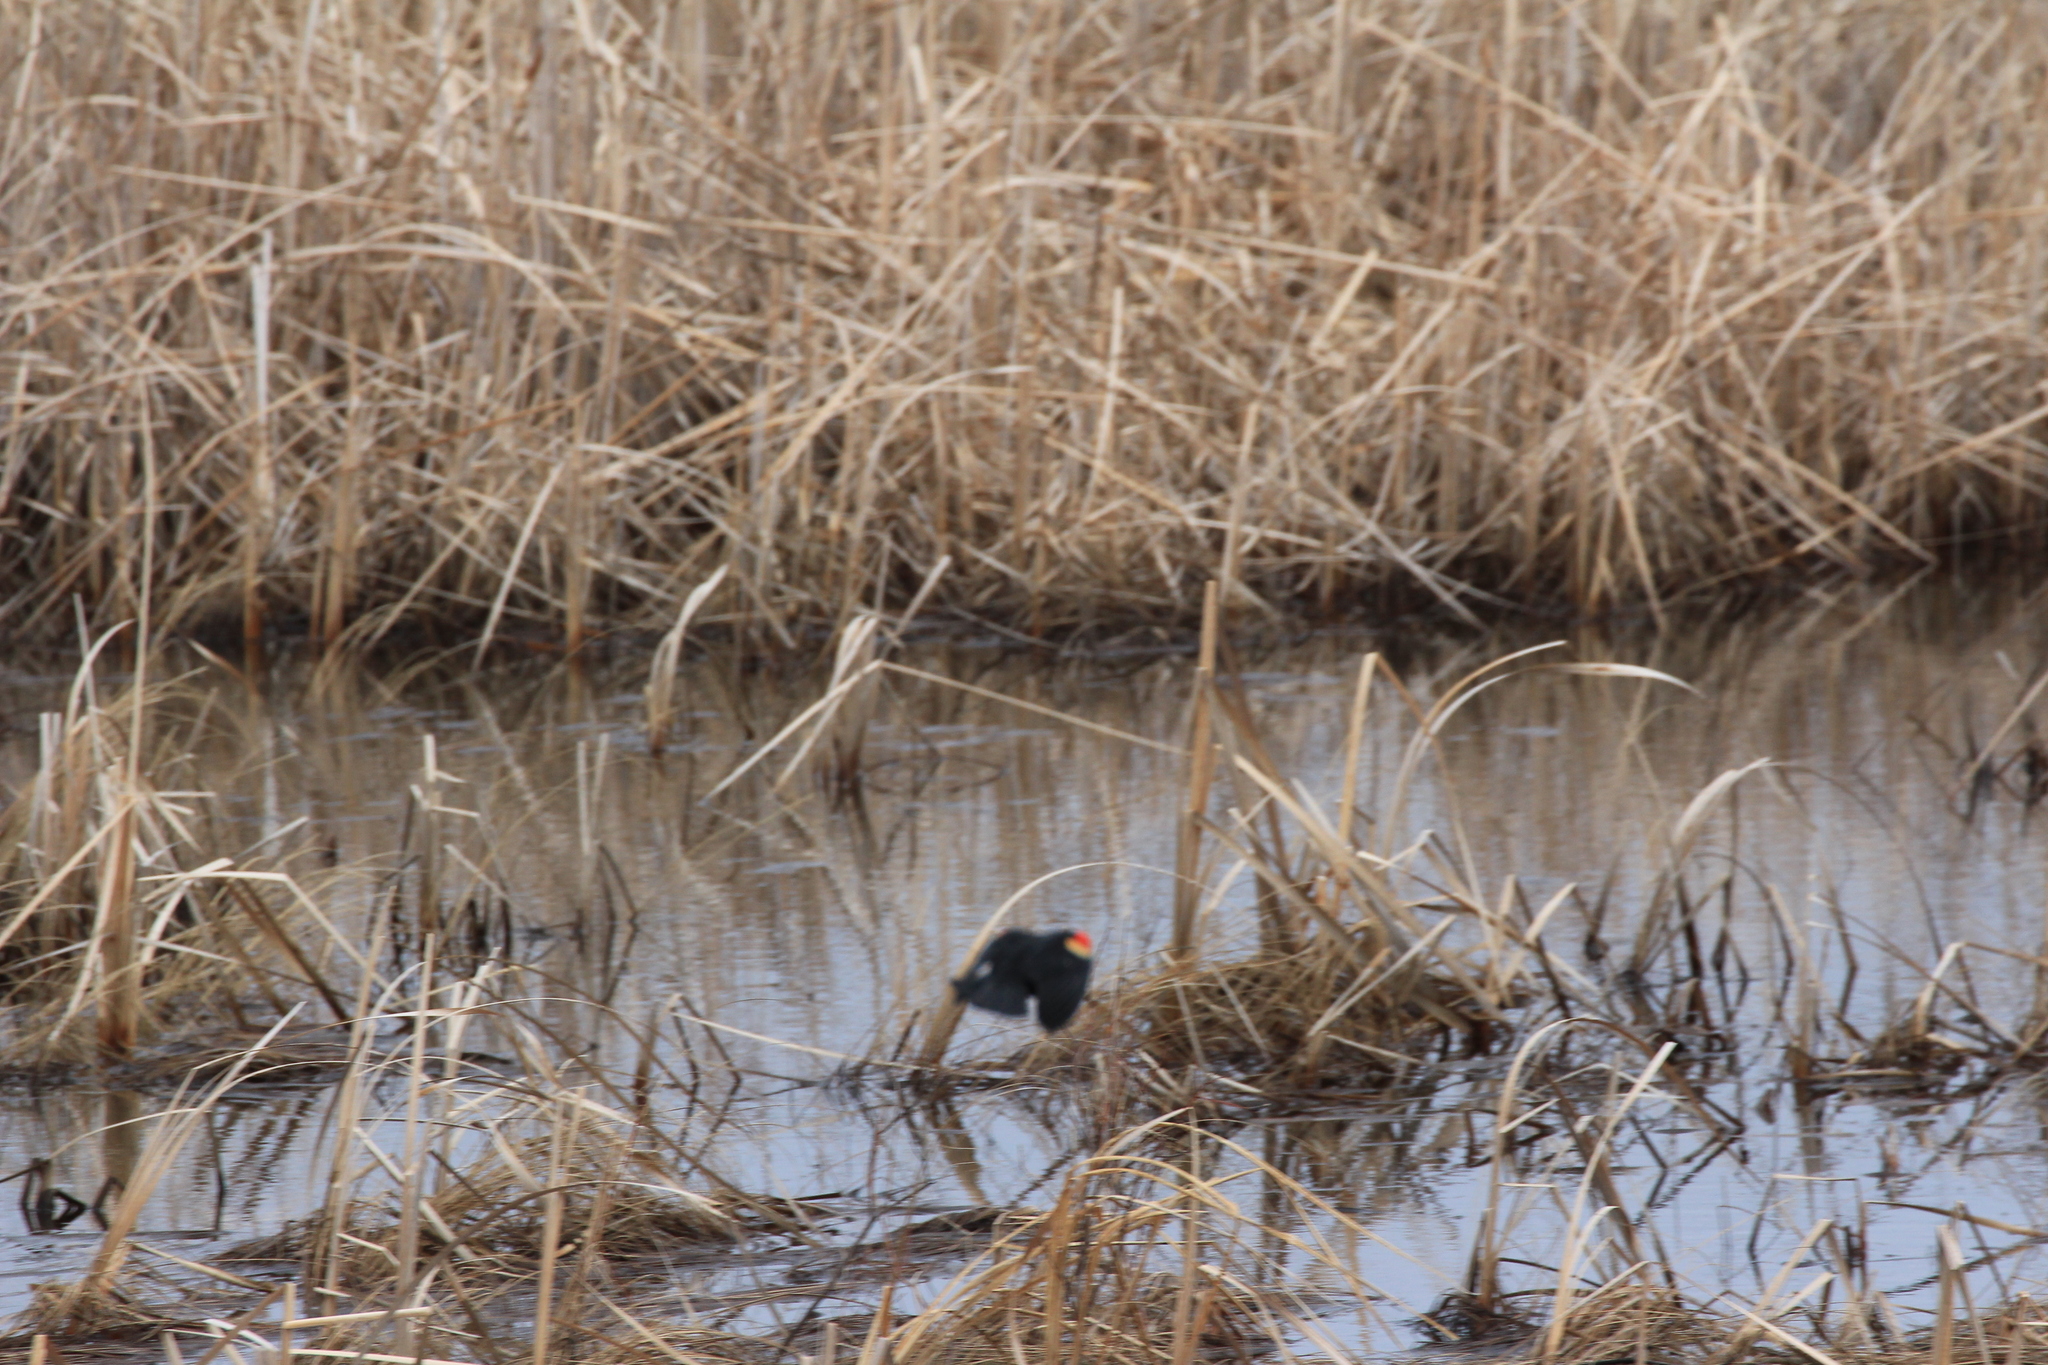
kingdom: Animalia
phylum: Chordata
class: Aves
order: Passeriformes
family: Icteridae
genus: Agelaius
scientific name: Agelaius phoeniceus
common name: Red-winged blackbird
